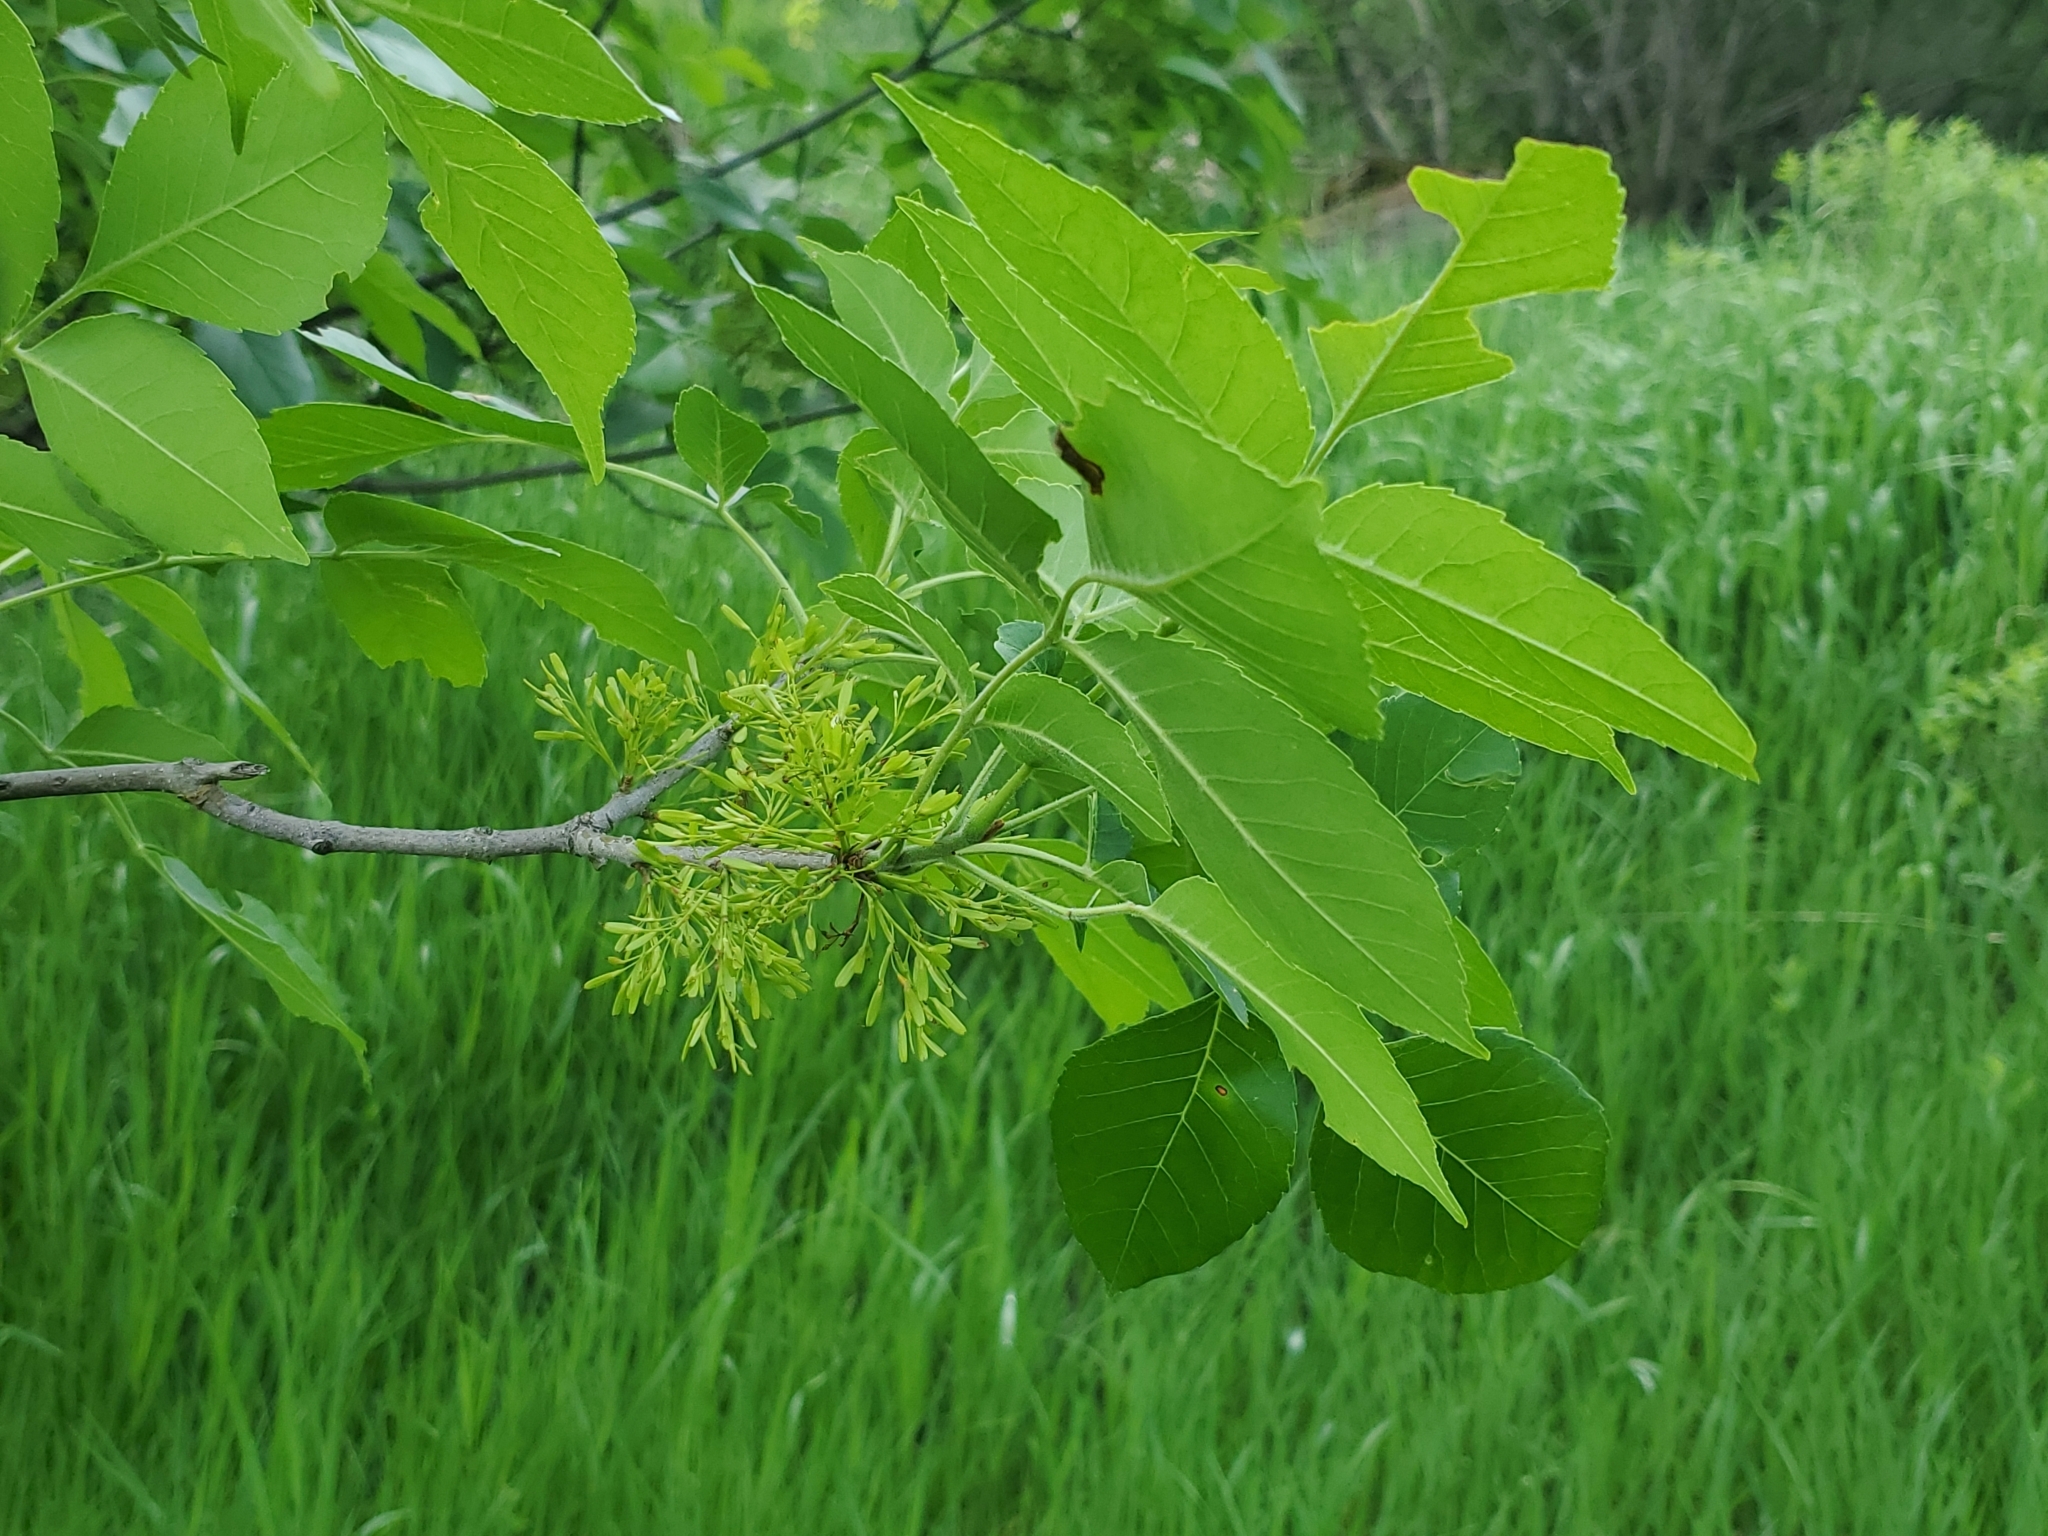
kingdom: Plantae
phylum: Tracheophyta
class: Magnoliopsida
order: Lamiales
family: Oleaceae
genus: Fraxinus
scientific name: Fraxinus pennsylvanica
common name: Green ash
